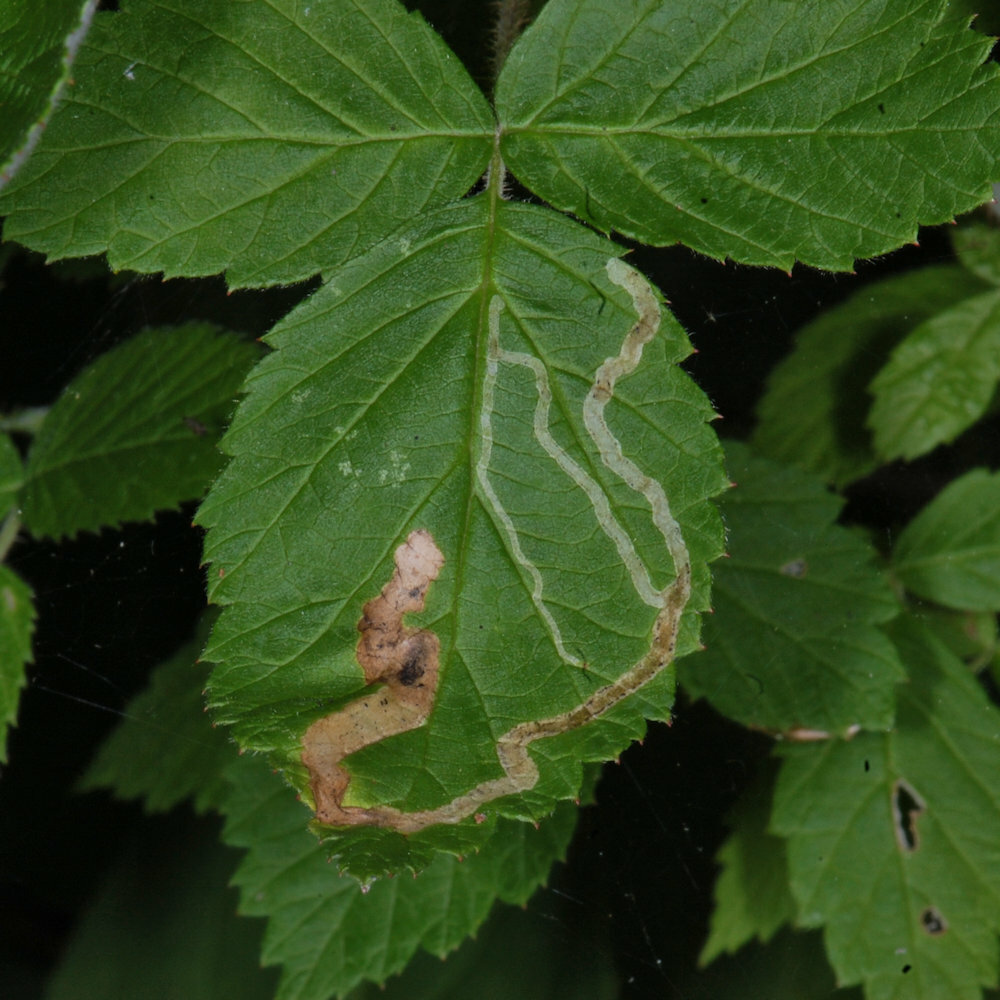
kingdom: Animalia
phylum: Arthropoda
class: Insecta
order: Diptera
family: Agromyzidae
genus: Agromyza
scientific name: Agromyza vockerothi
